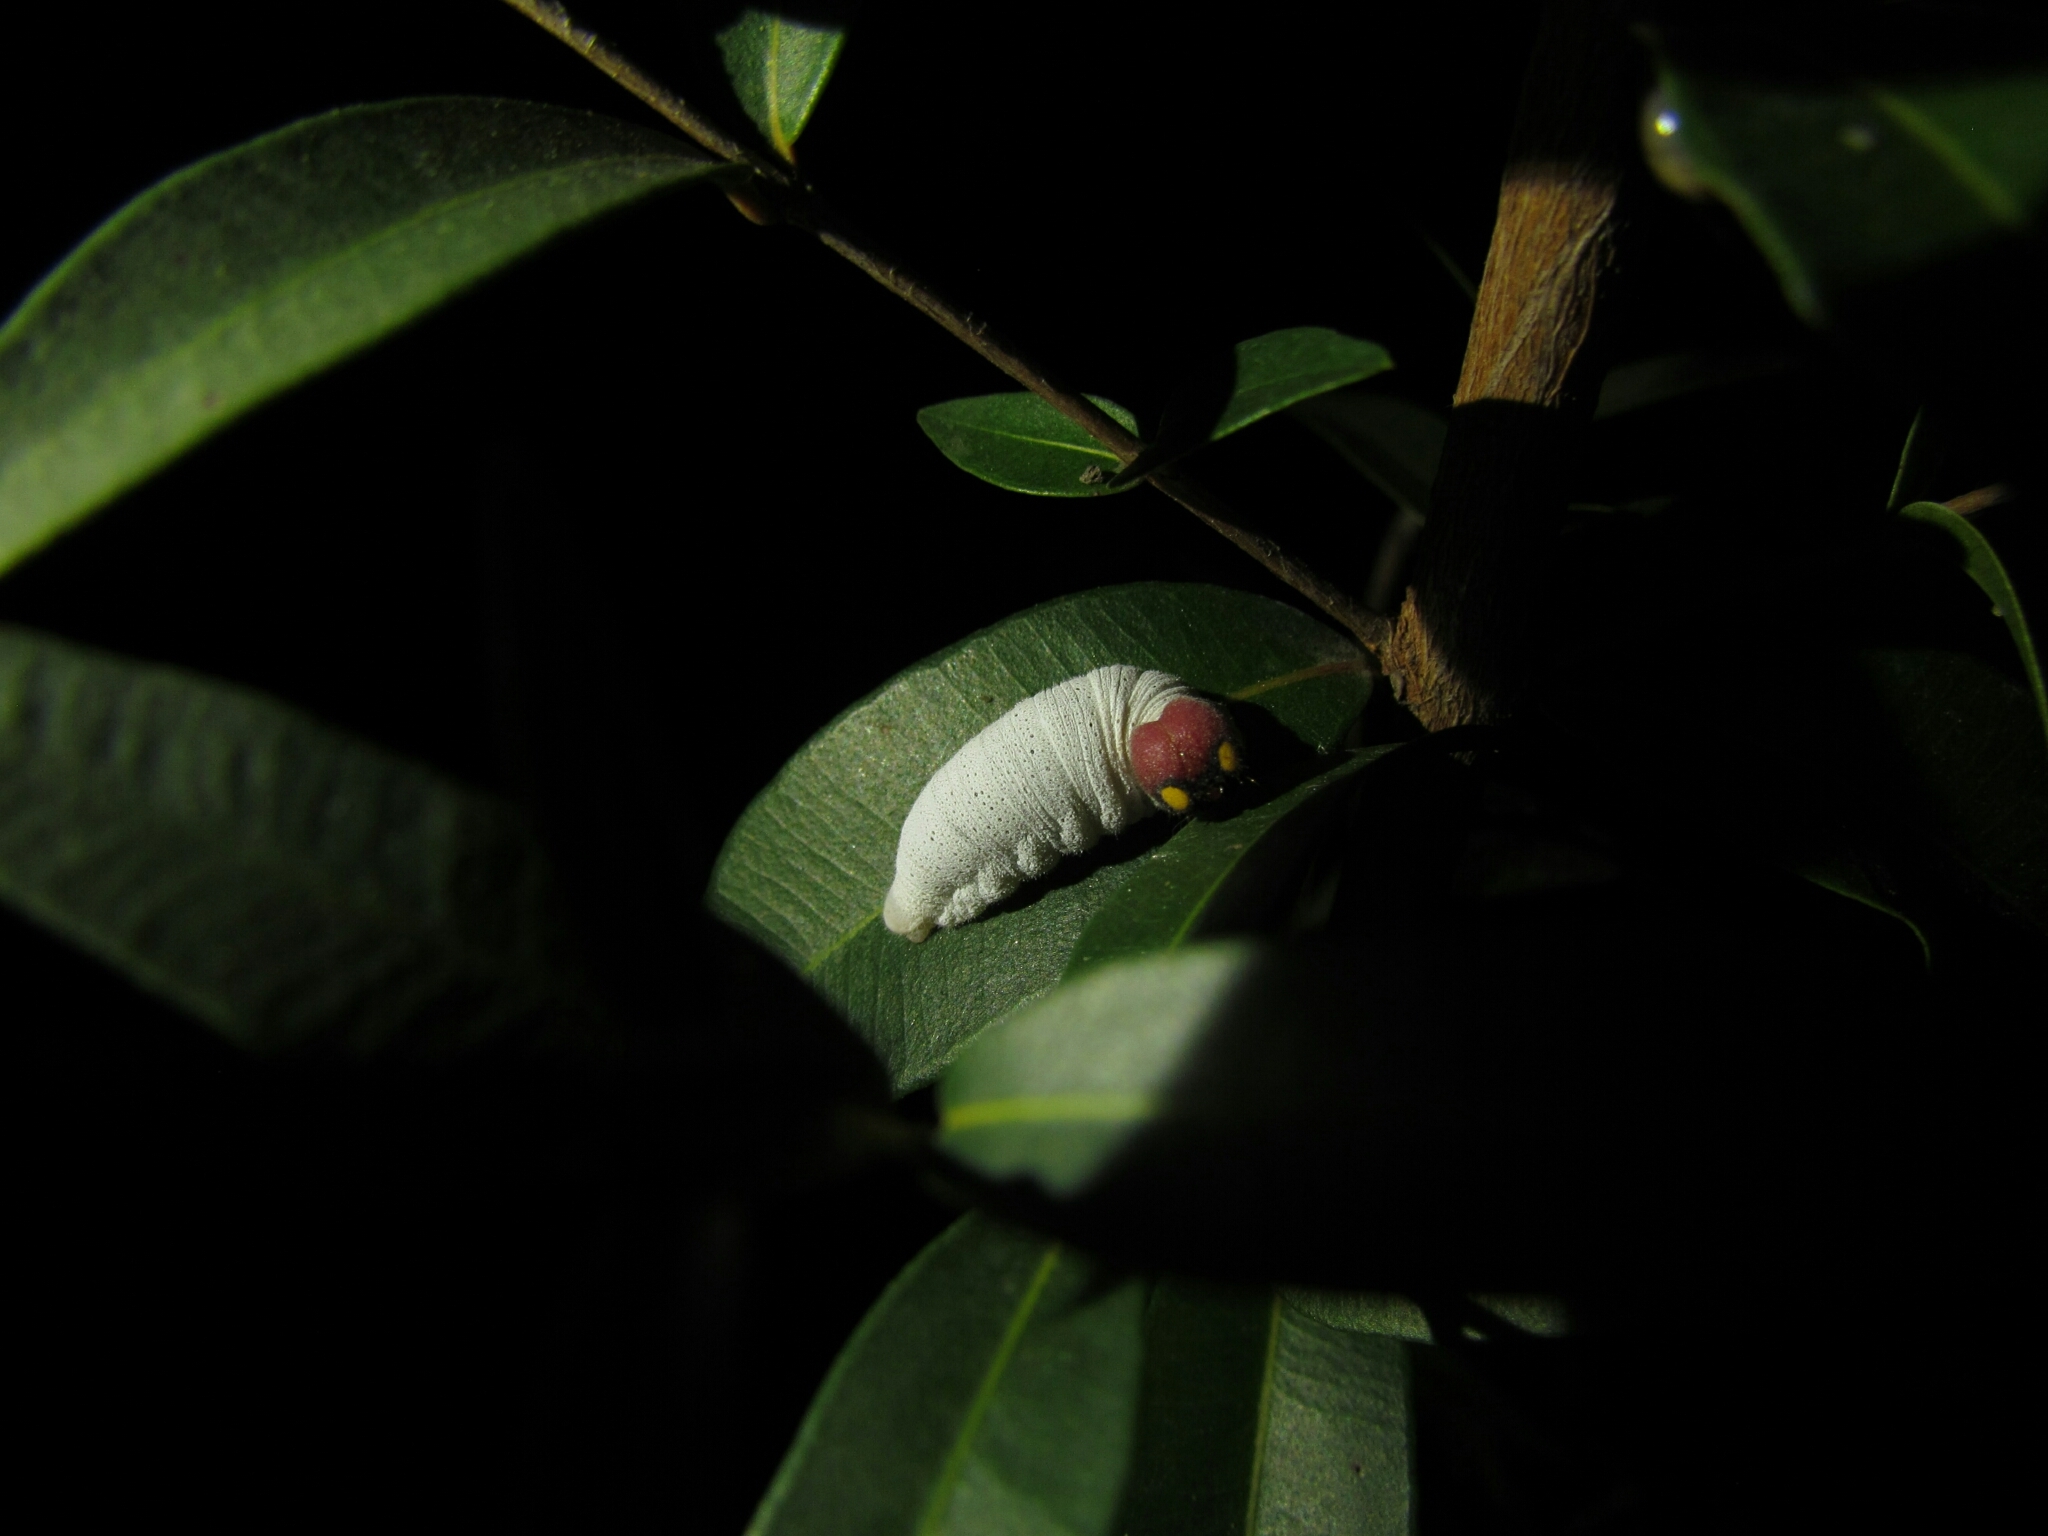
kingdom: Animalia
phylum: Arthropoda
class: Insecta
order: Lepidoptera
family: Hesperiidae
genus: Phocides
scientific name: Phocides polybius
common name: Guava skipper
